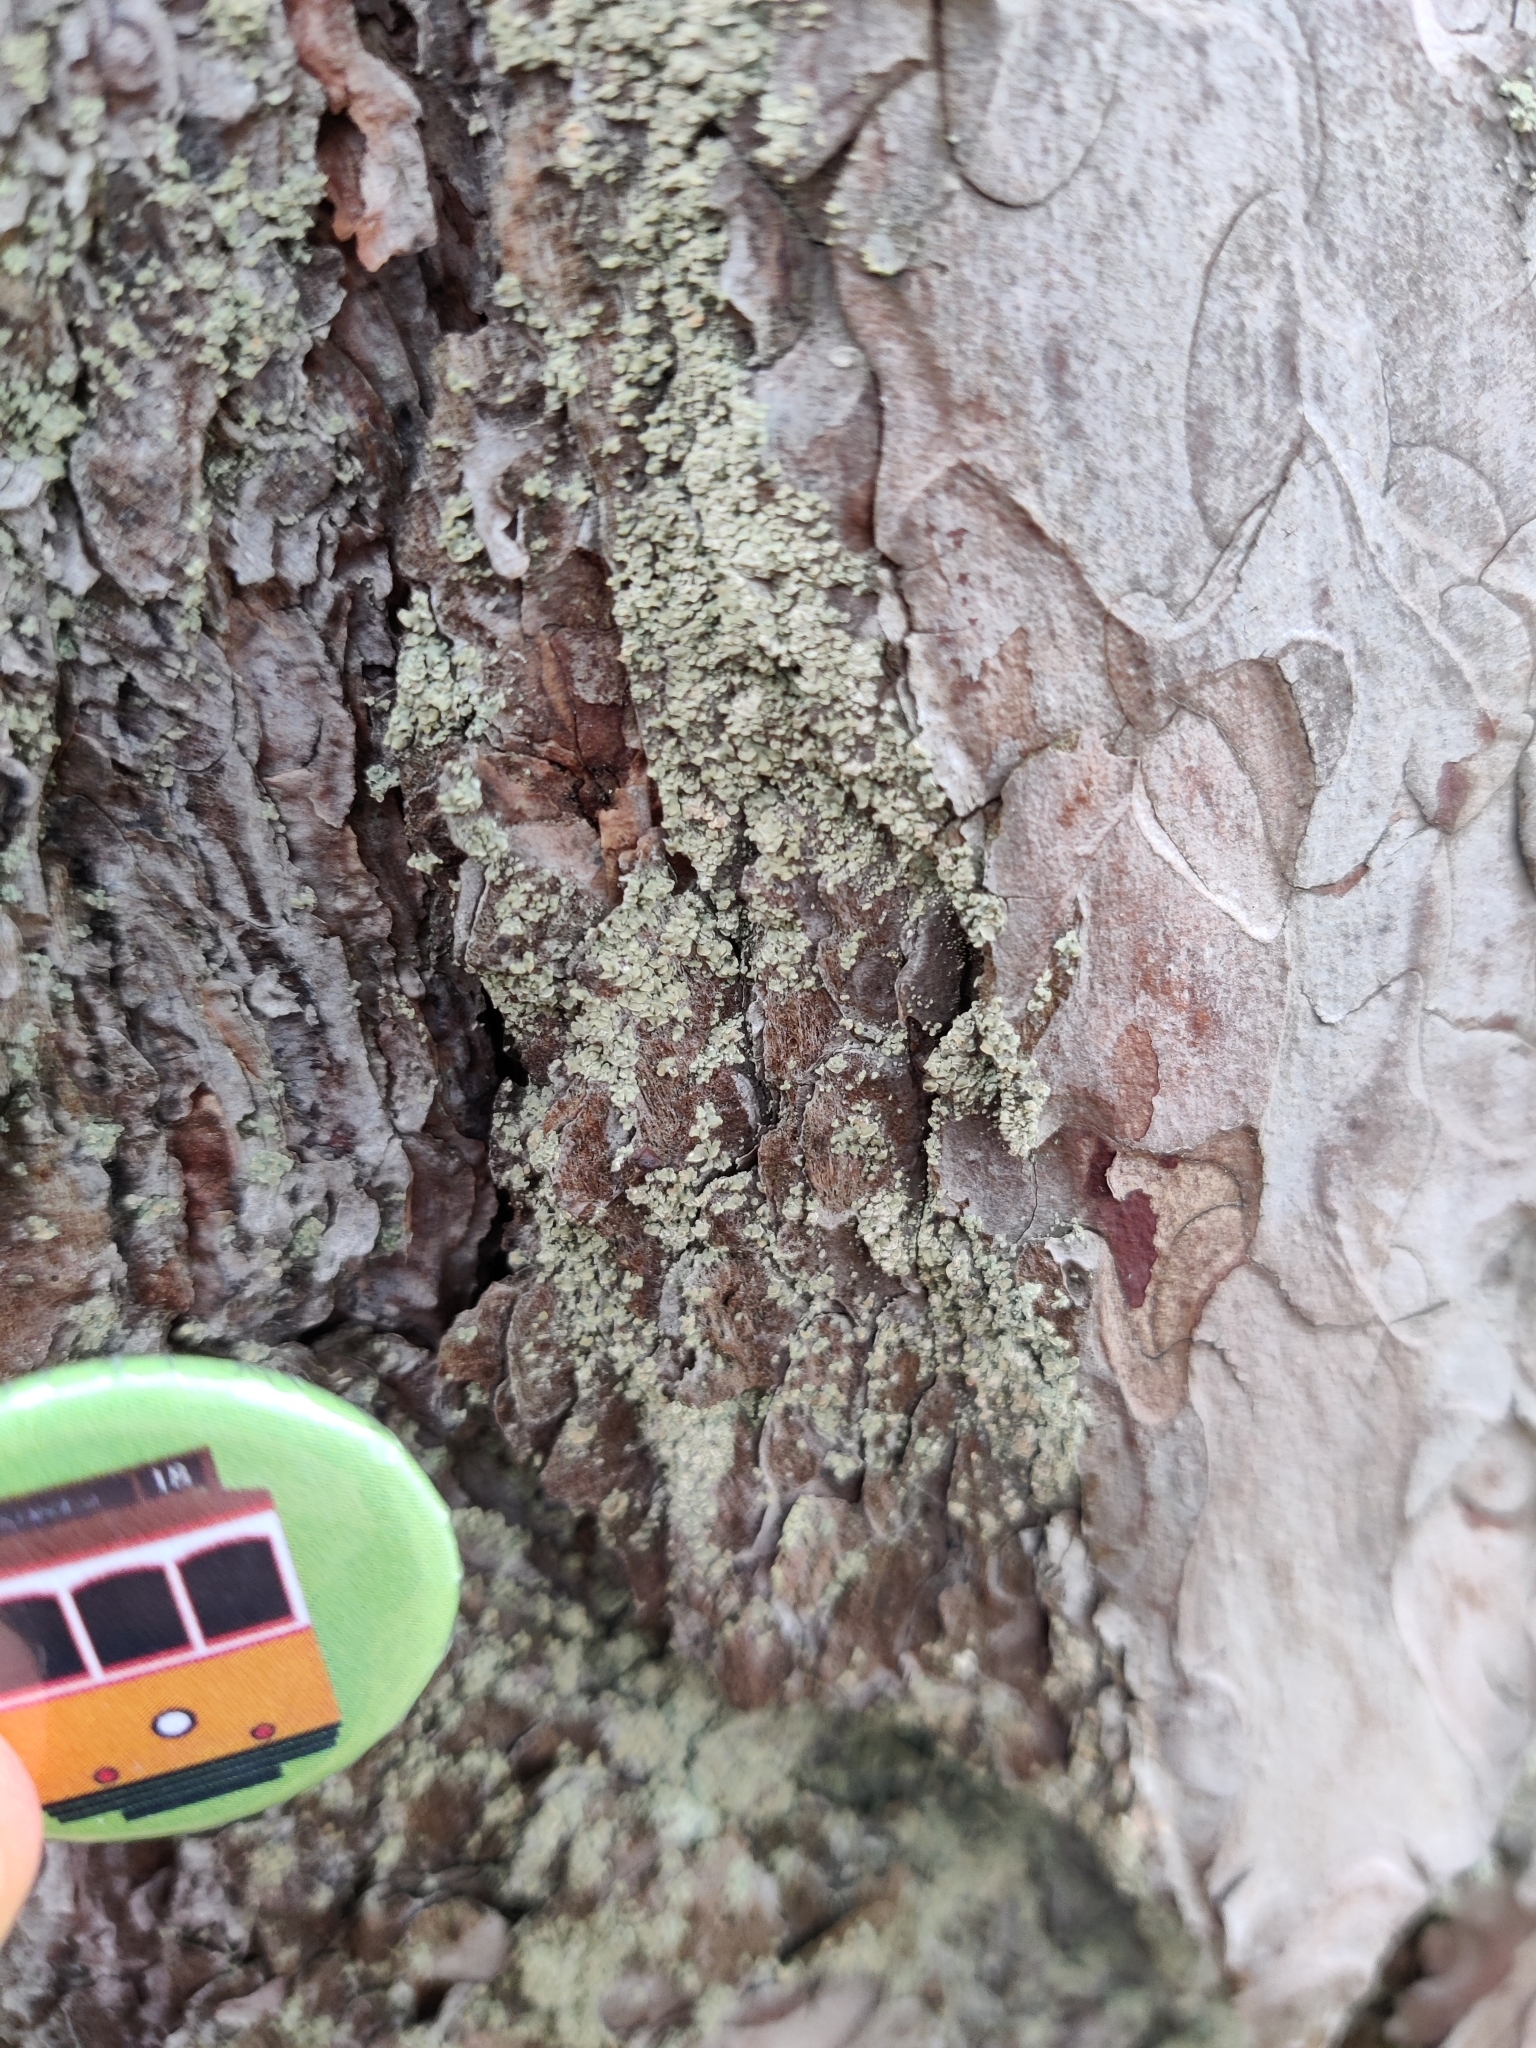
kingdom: Fungi
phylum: Ascomycota
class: Lecanoromycetes
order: Umbilicariales
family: Ophioparmaceae
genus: Hypocenomyce
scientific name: Hypocenomyce scalaris
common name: Common clam lichen
